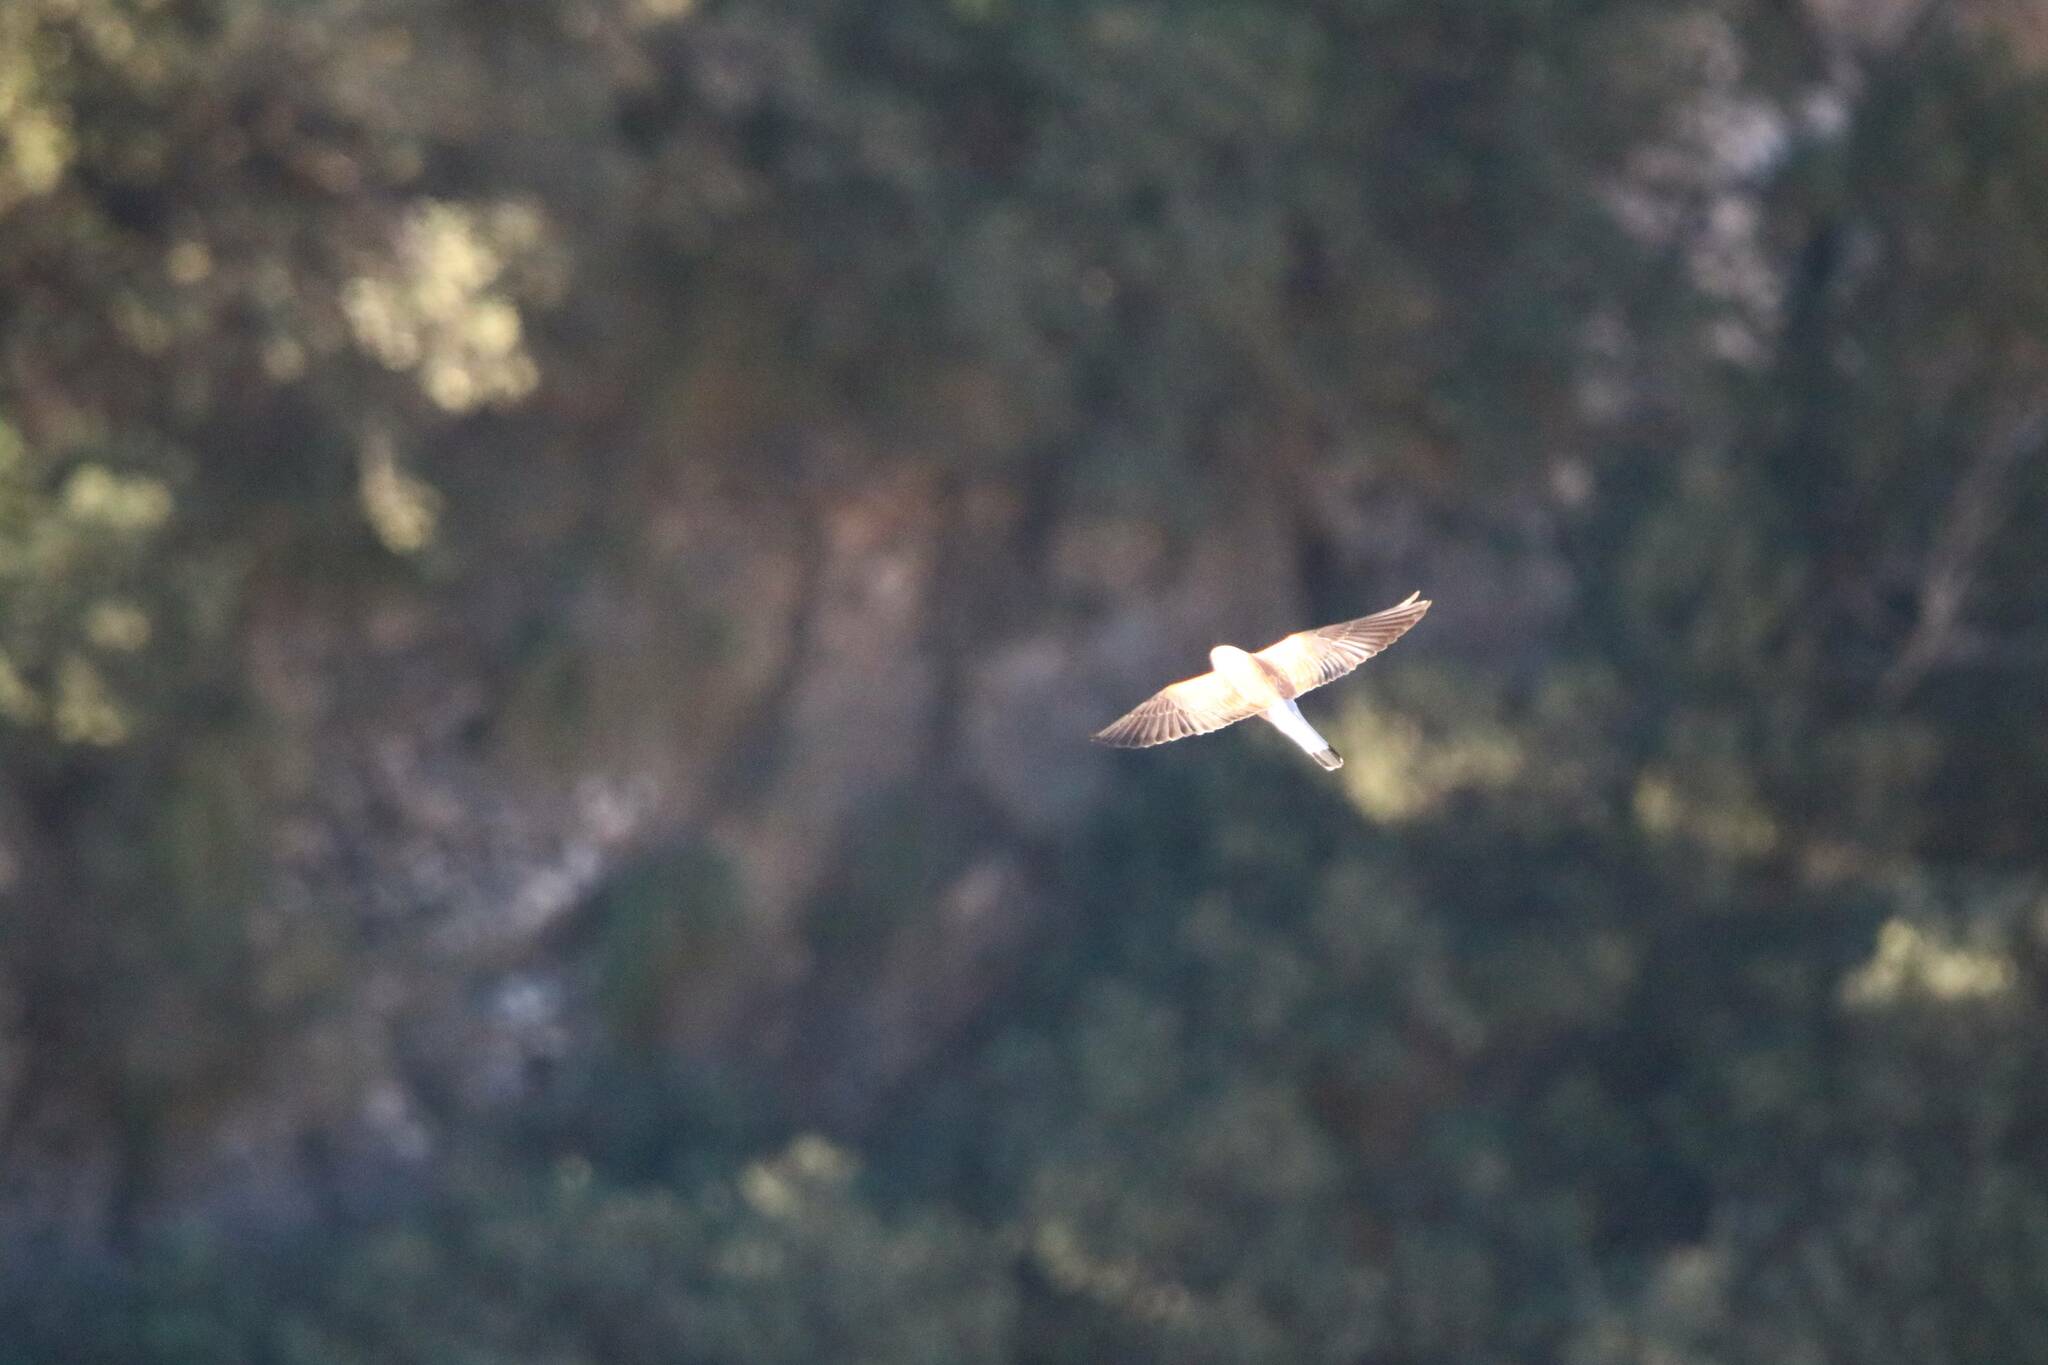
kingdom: Animalia
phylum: Chordata
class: Aves
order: Falconiformes
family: Falconidae
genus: Falco
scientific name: Falco naumanni
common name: Lesser kestrel
